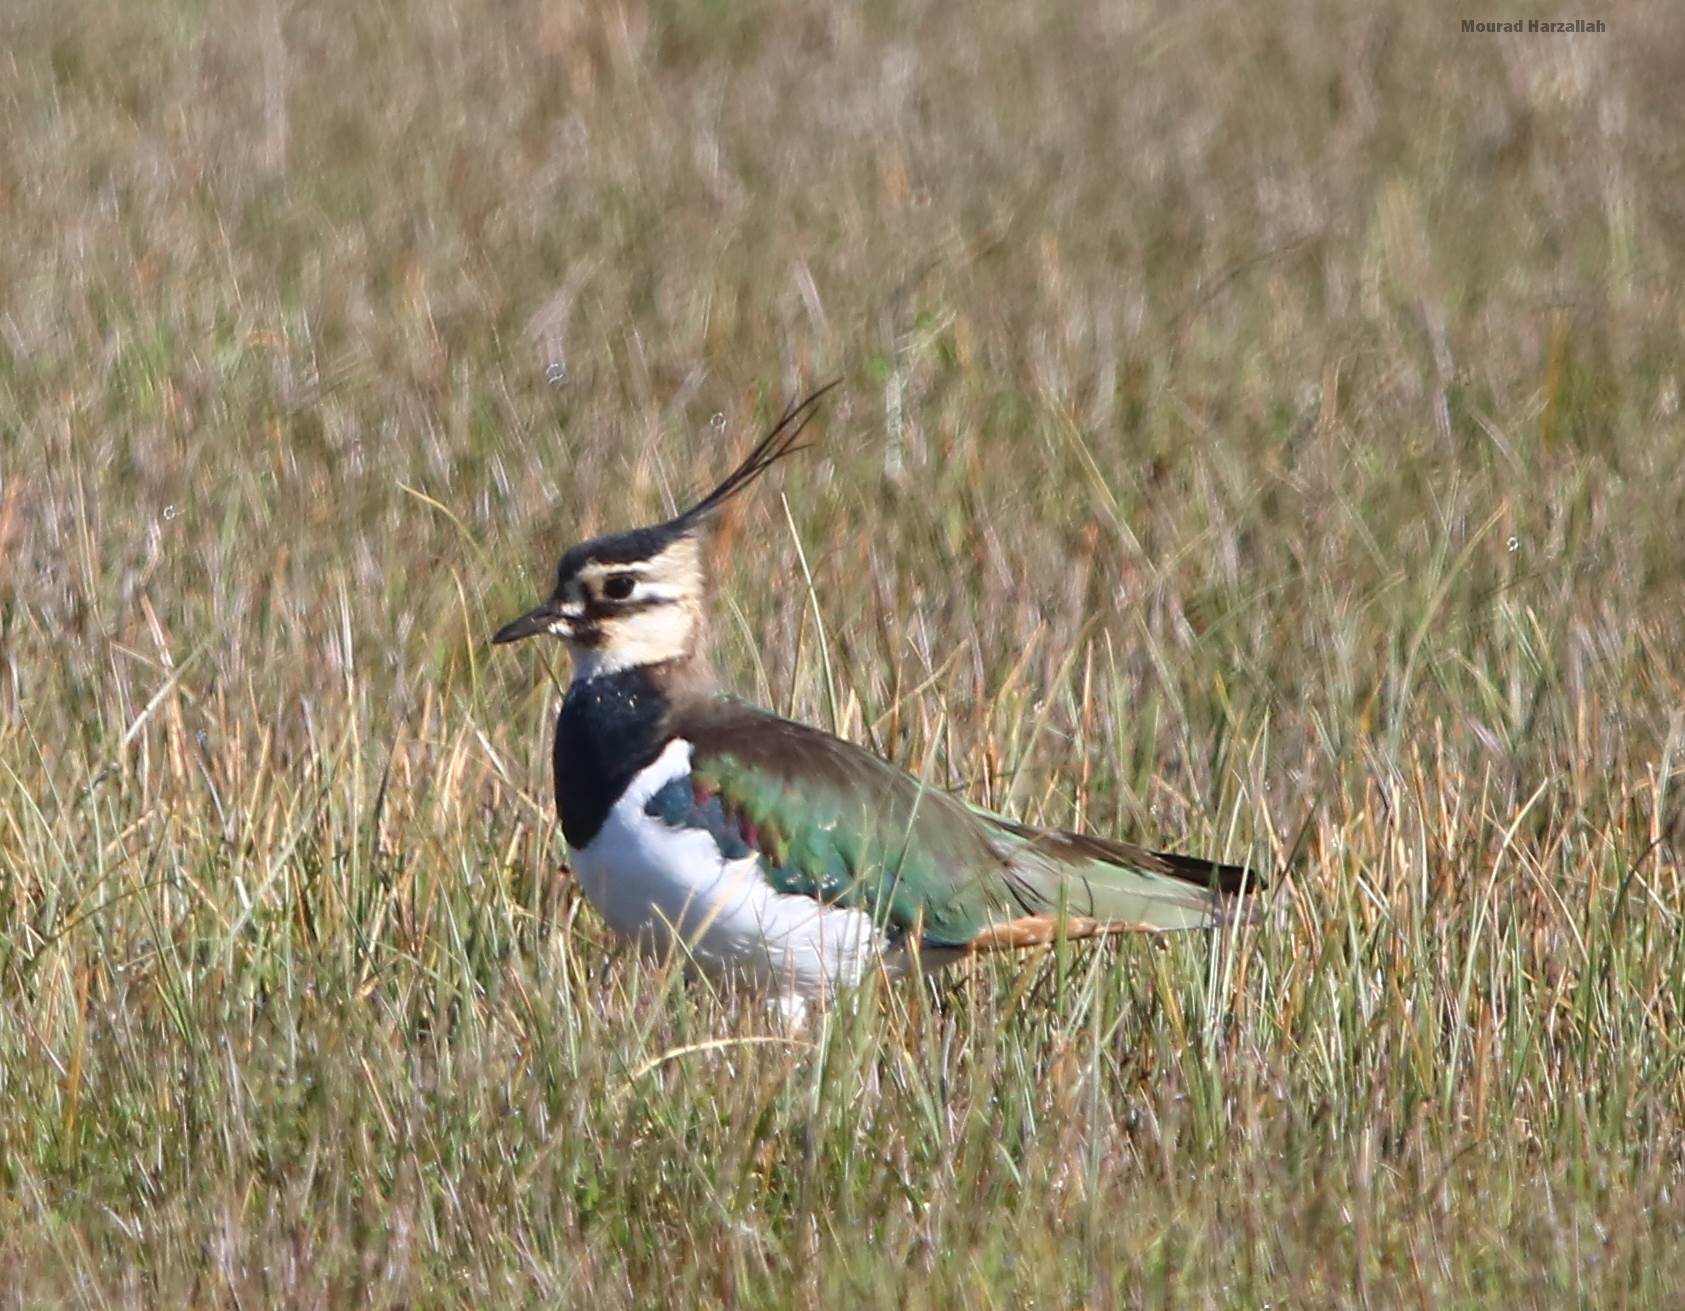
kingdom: Animalia
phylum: Chordata
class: Aves
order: Charadriiformes
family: Charadriidae
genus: Vanellus
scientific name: Vanellus vanellus
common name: Northern lapwing
